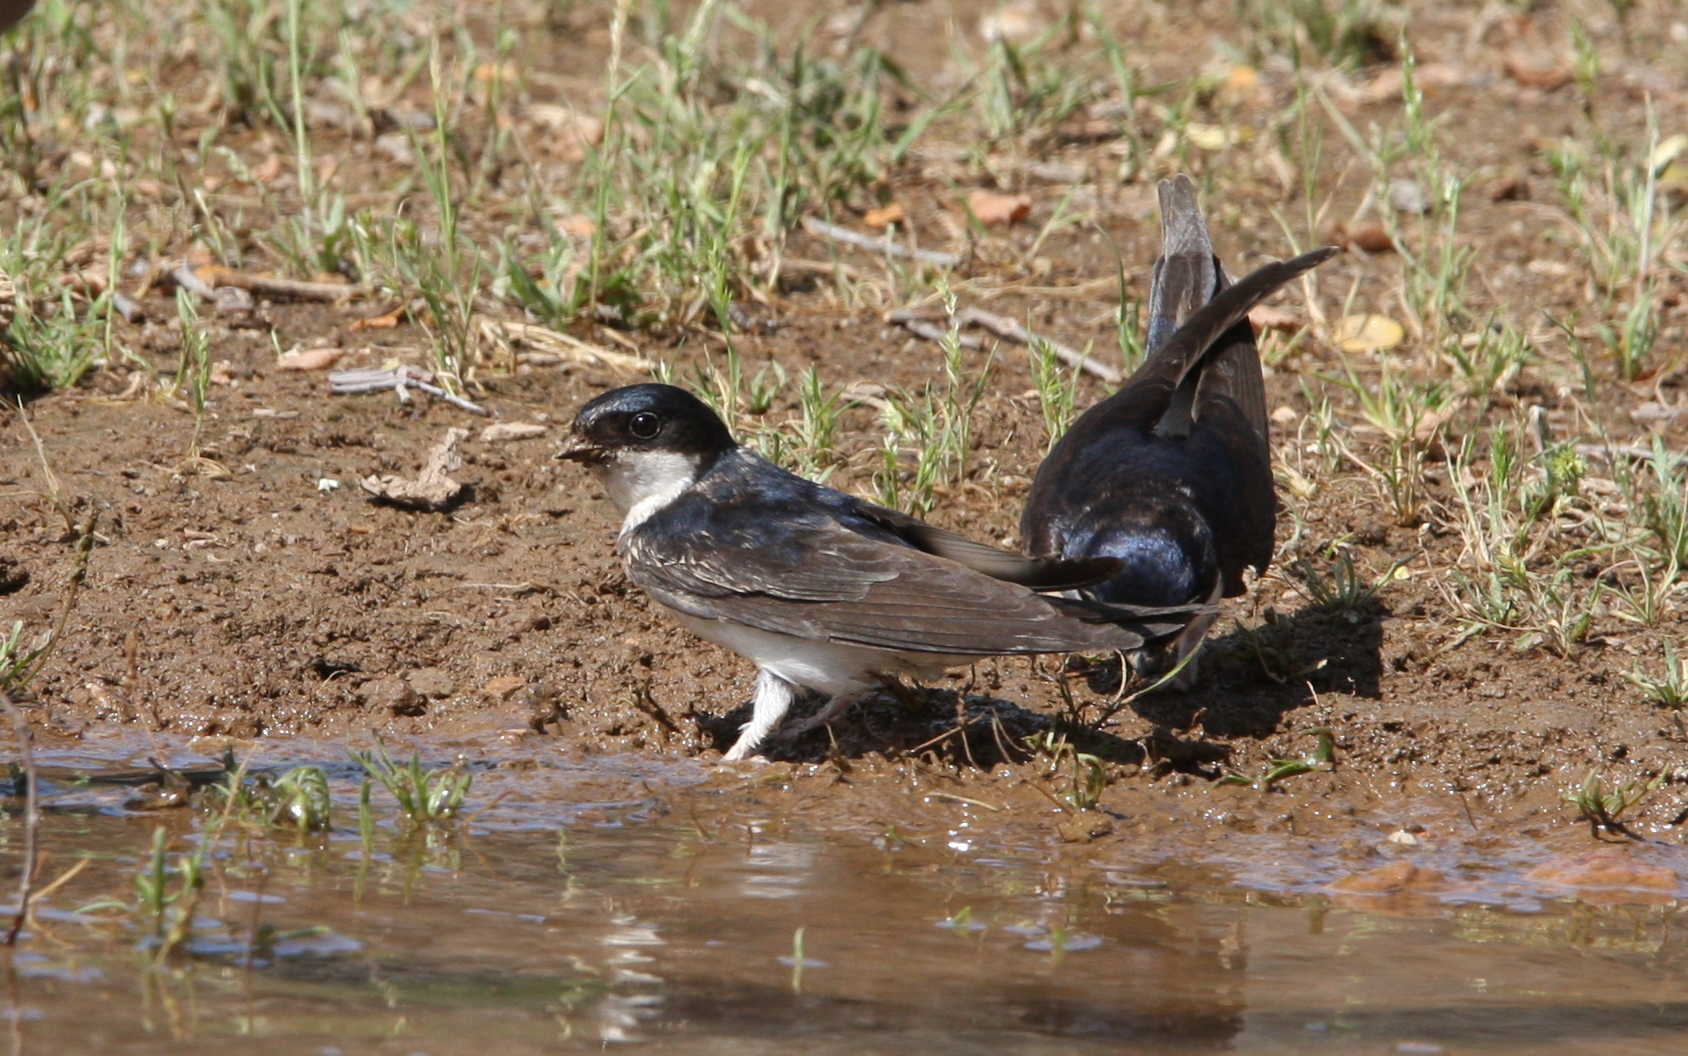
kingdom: Animalia
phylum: Chordata
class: Aves
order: Passeriformes
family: Hirundinidae
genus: Delichon
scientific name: Delichon urbicum
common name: Common house martin
